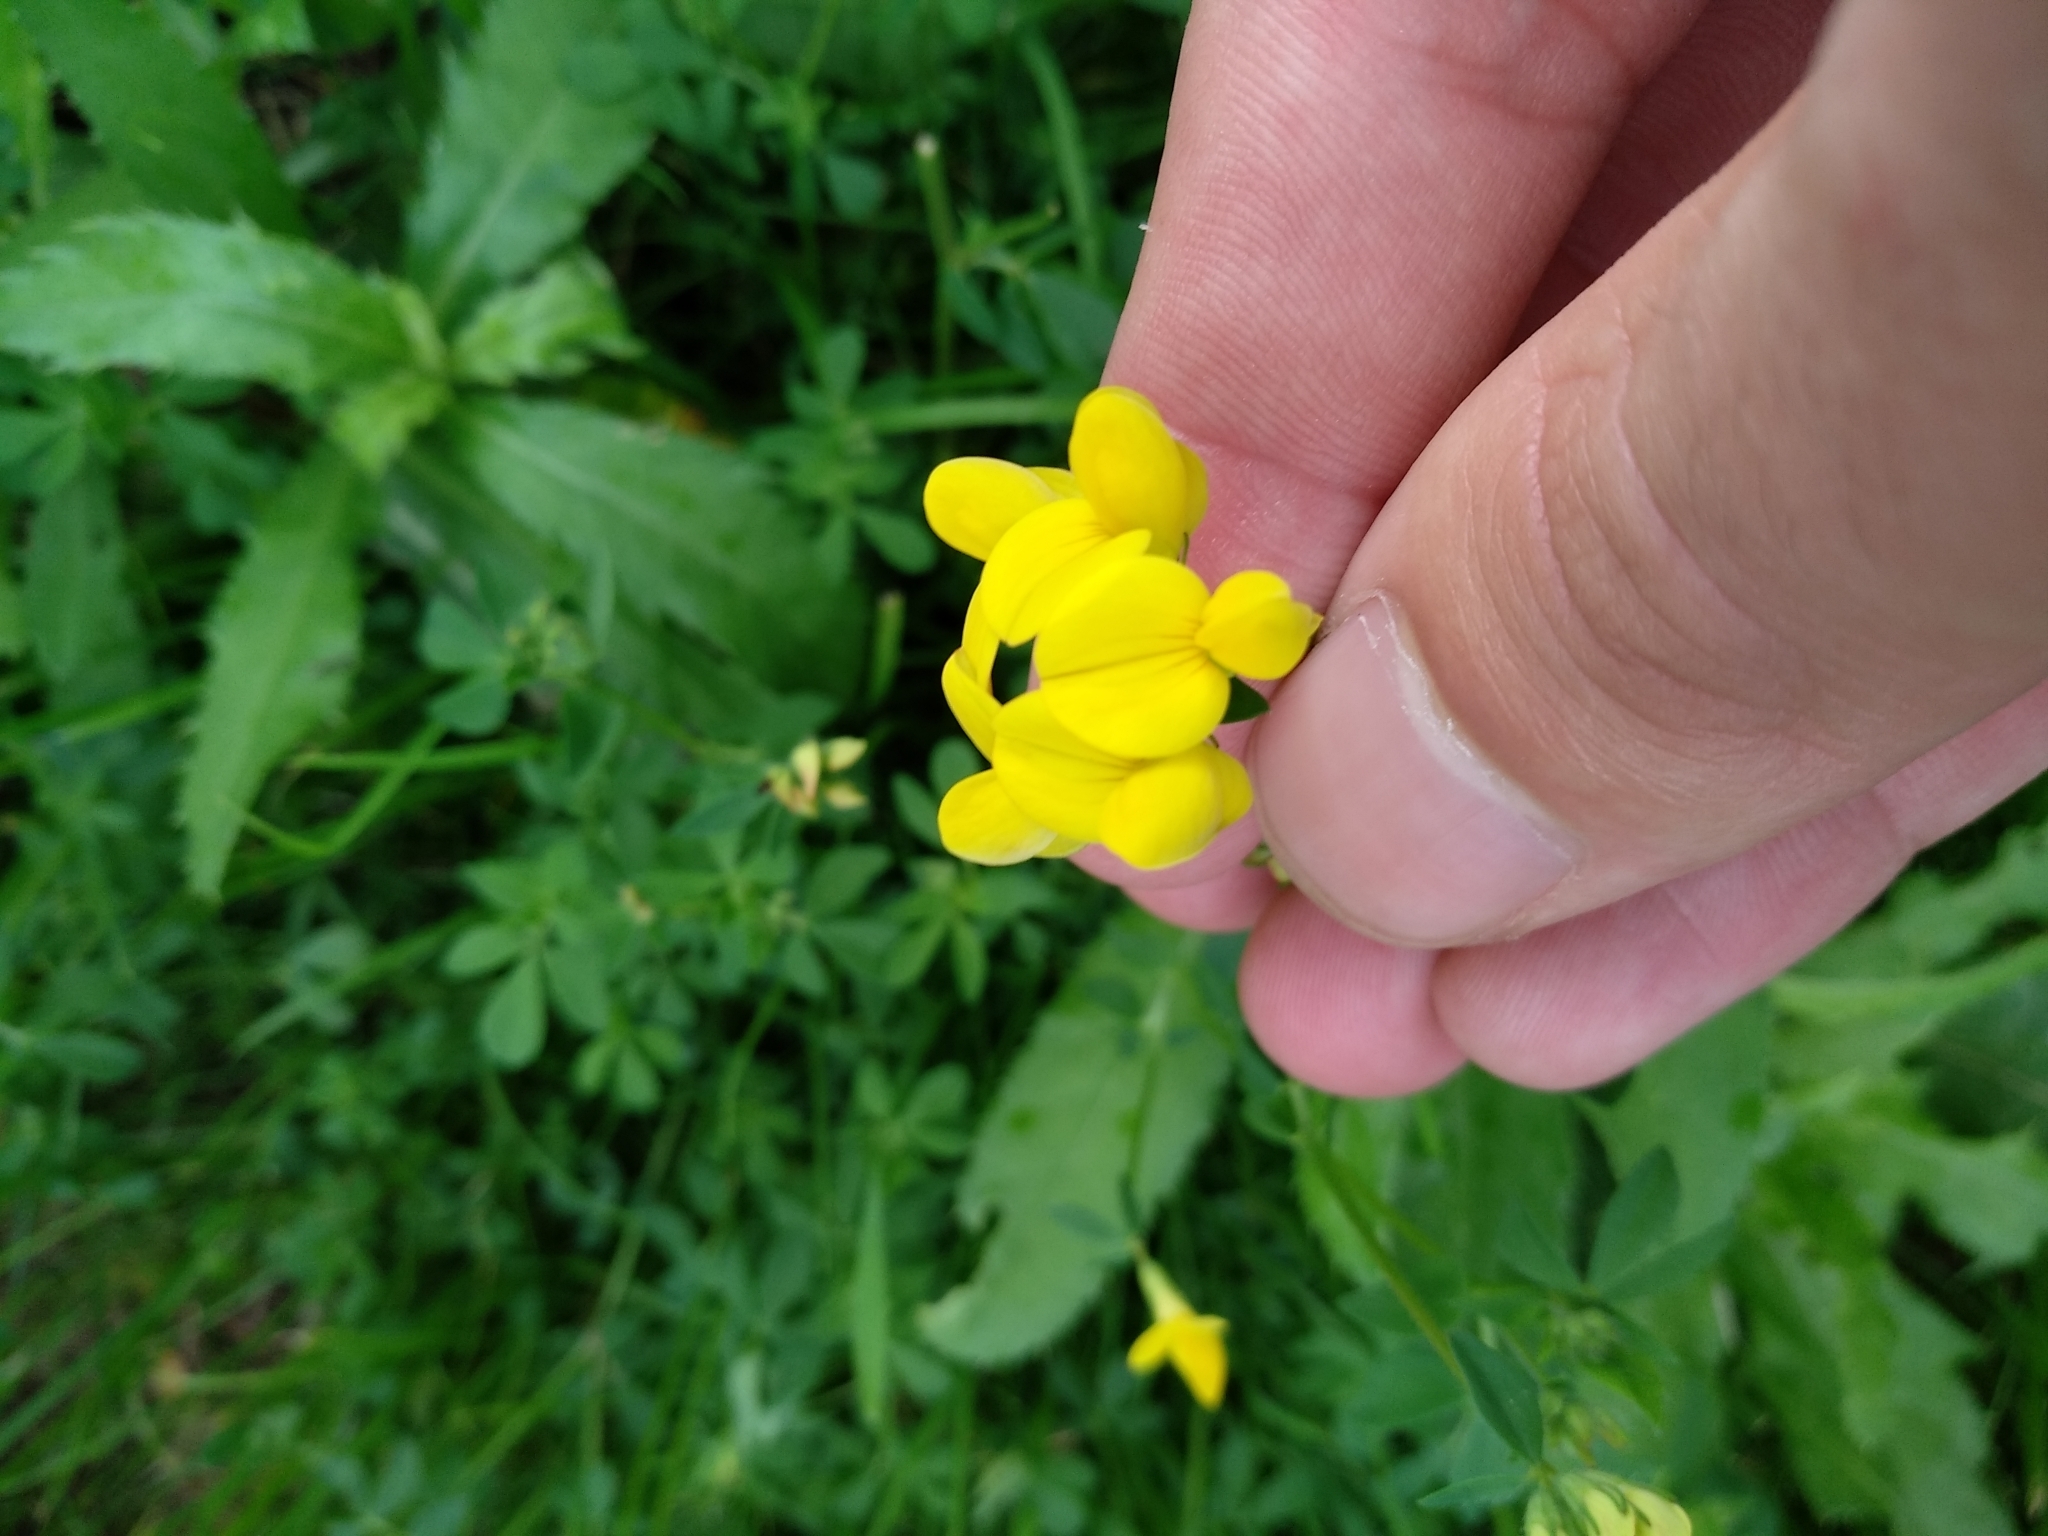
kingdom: Plantae
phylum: Tracheophyta
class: Magnoliopsida
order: Fabales
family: Fabaceae
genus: Lotus
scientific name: Lotus corniculatus
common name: Common bird's-foot-trefoil
